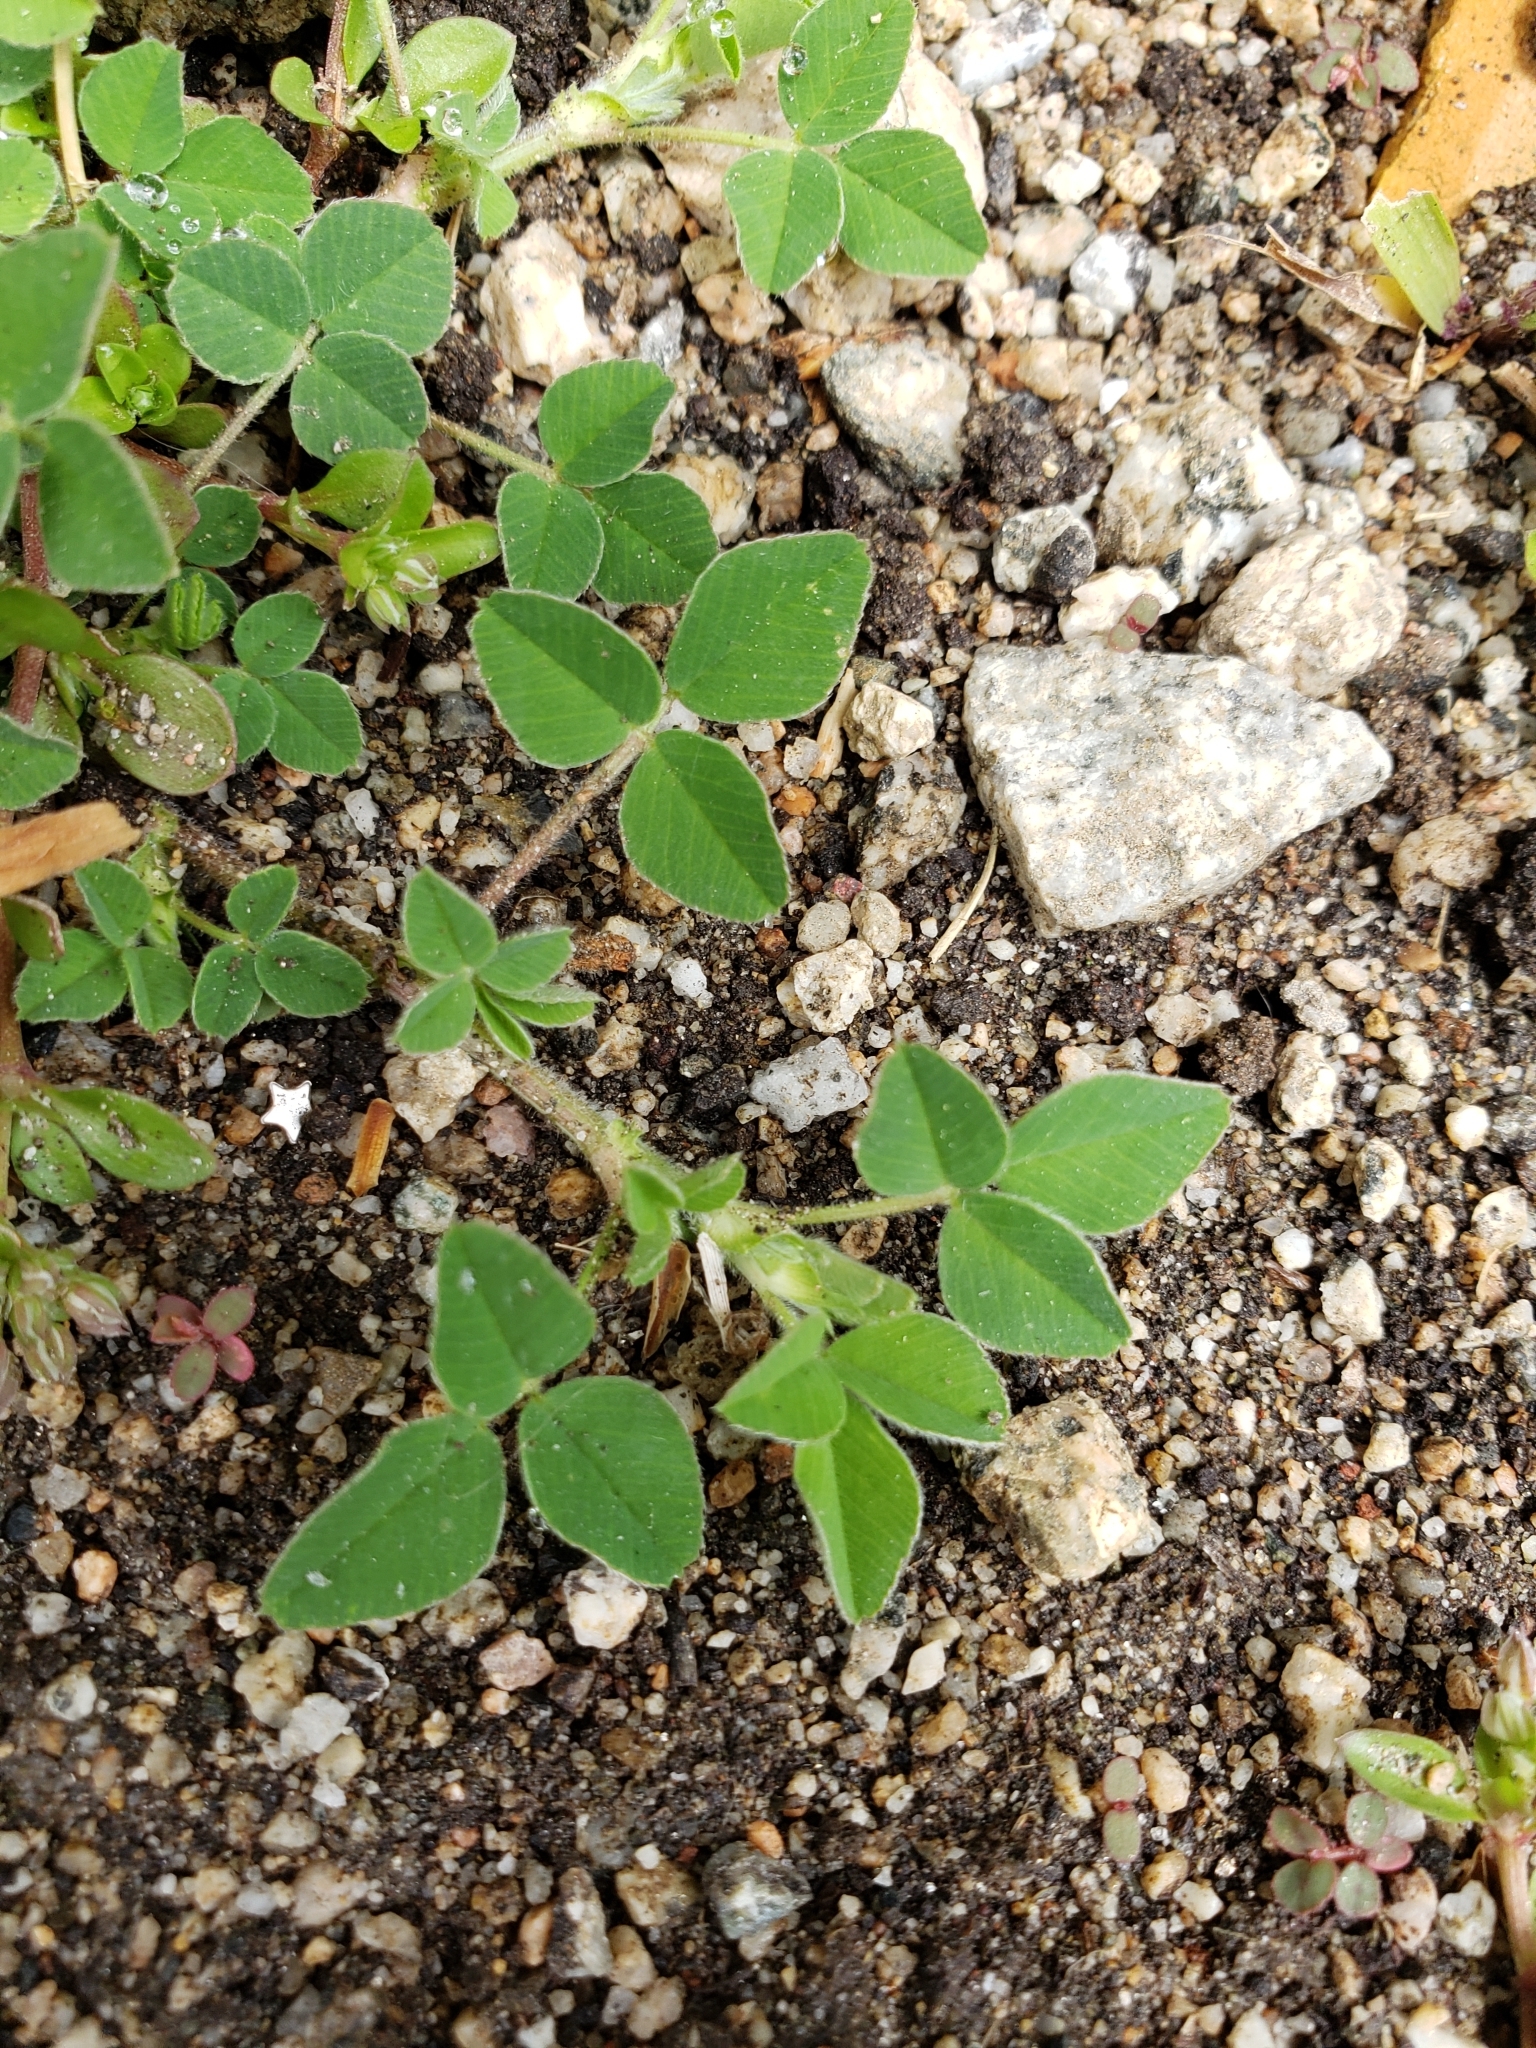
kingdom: Plantae
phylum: Tracheophyta
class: Magnoliopsida
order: Fabales
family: Fabaceae
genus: Medicago
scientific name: Medicago lupulina
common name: Black medick
